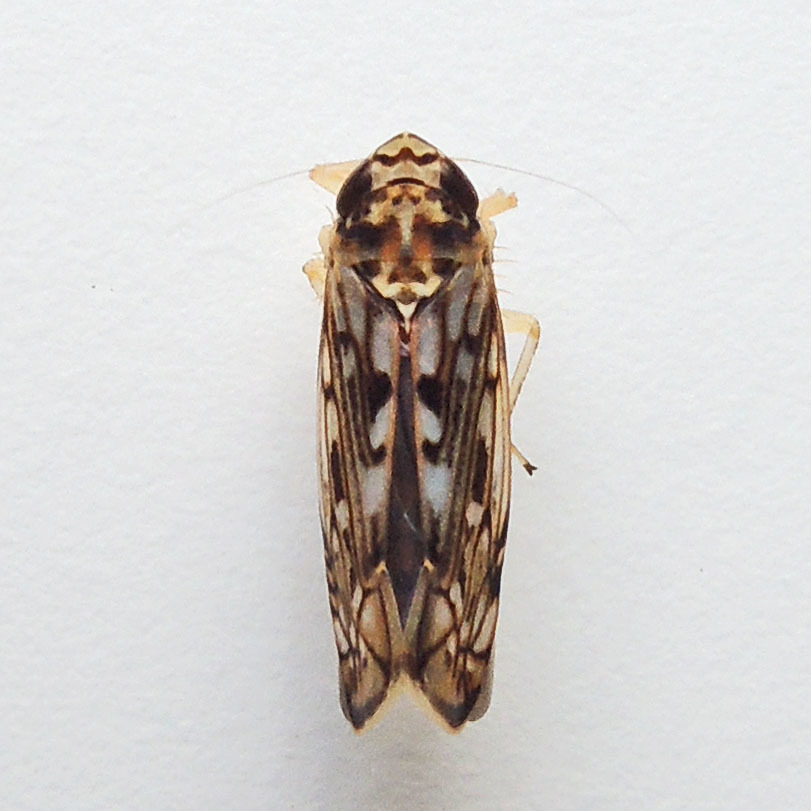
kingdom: Animalia
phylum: Arthropoda
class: Insecta
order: Hemiptera
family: Cicadellidae
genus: Scaphoideus
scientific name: Scaphoideus soleus
